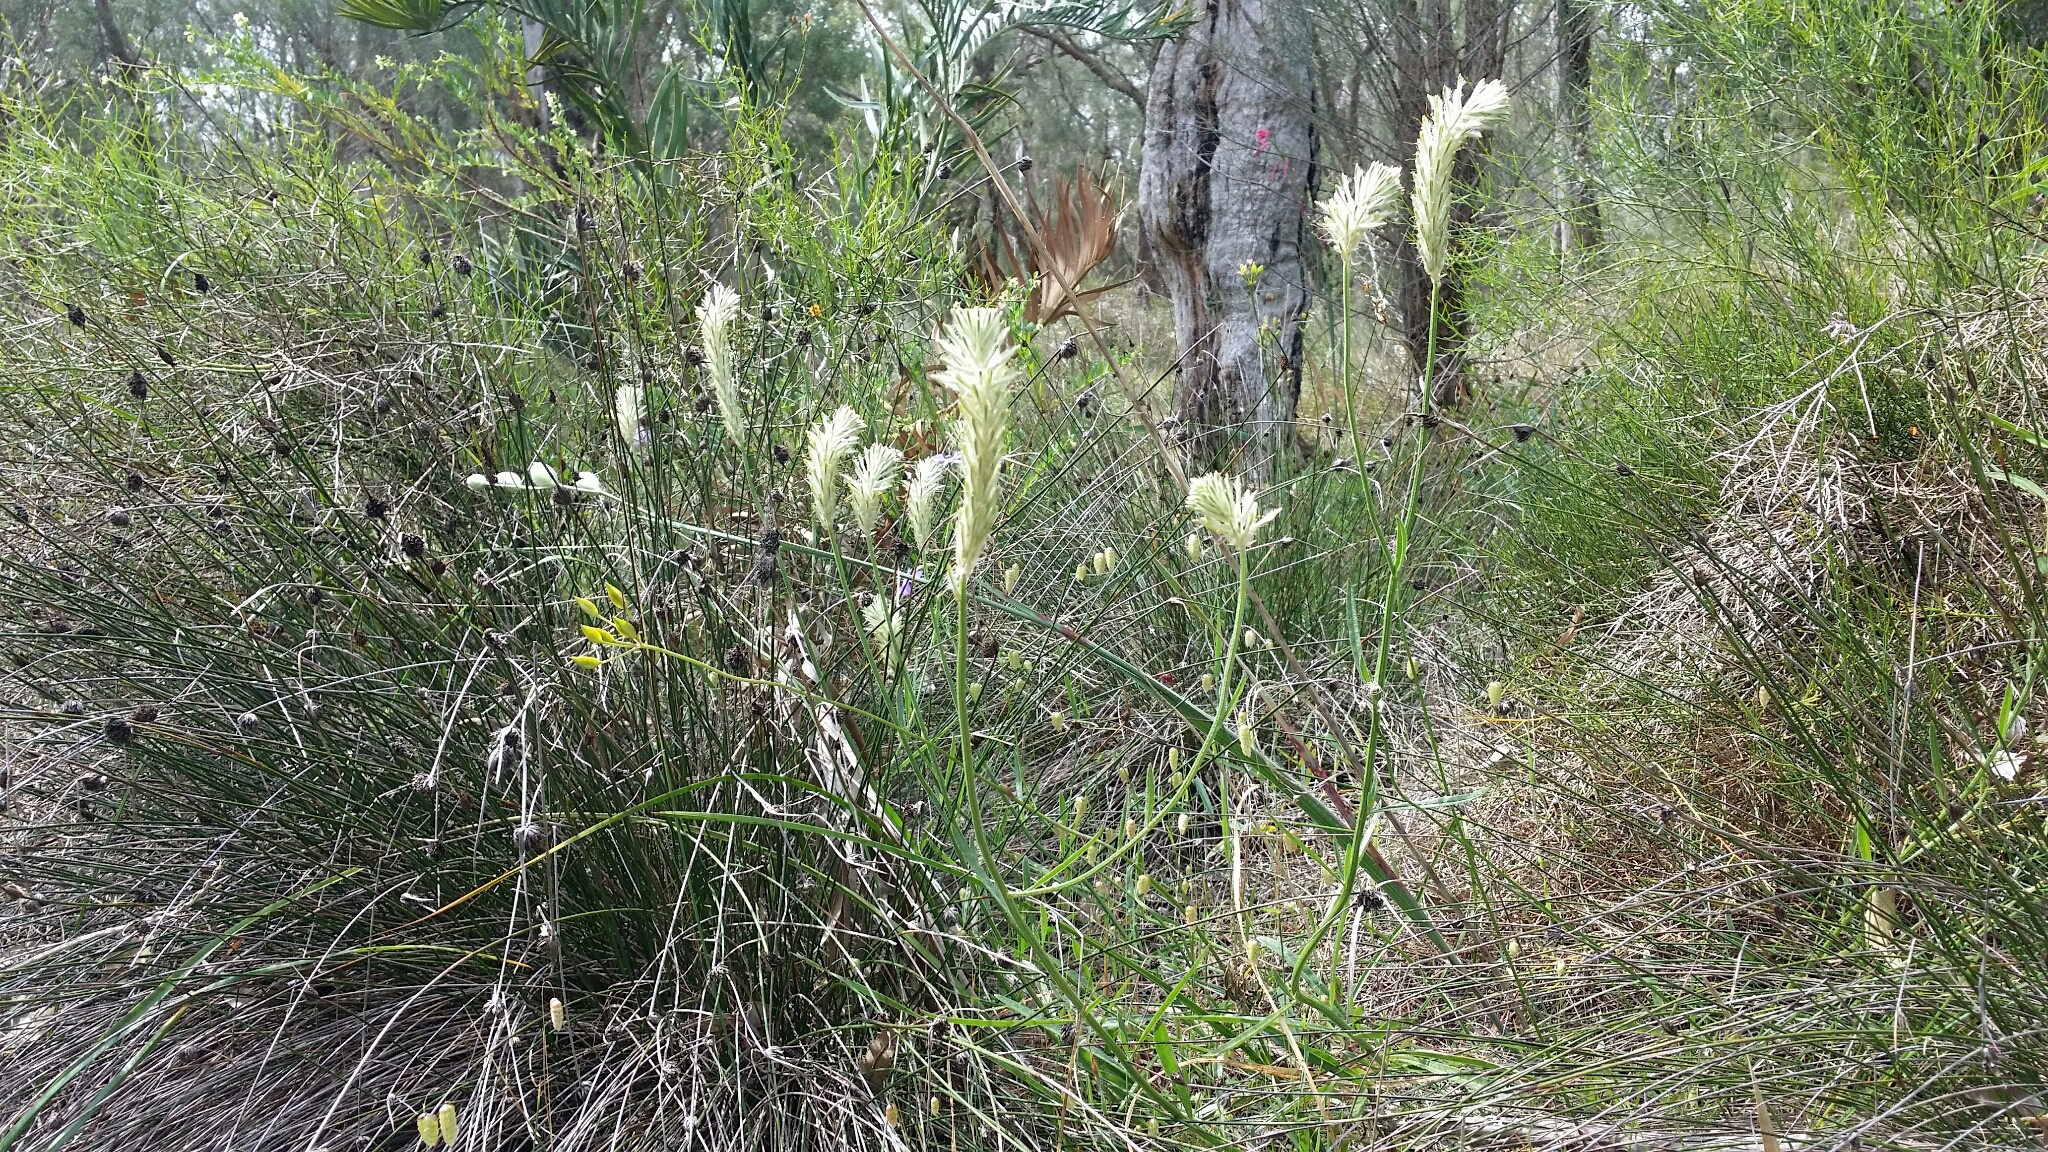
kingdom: Plantae
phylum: Tracheophyta
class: Magnoliopsida
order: Caryophyllales
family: Amaranthaceae
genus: Ptilotus
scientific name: Ptilotus polystachyus
